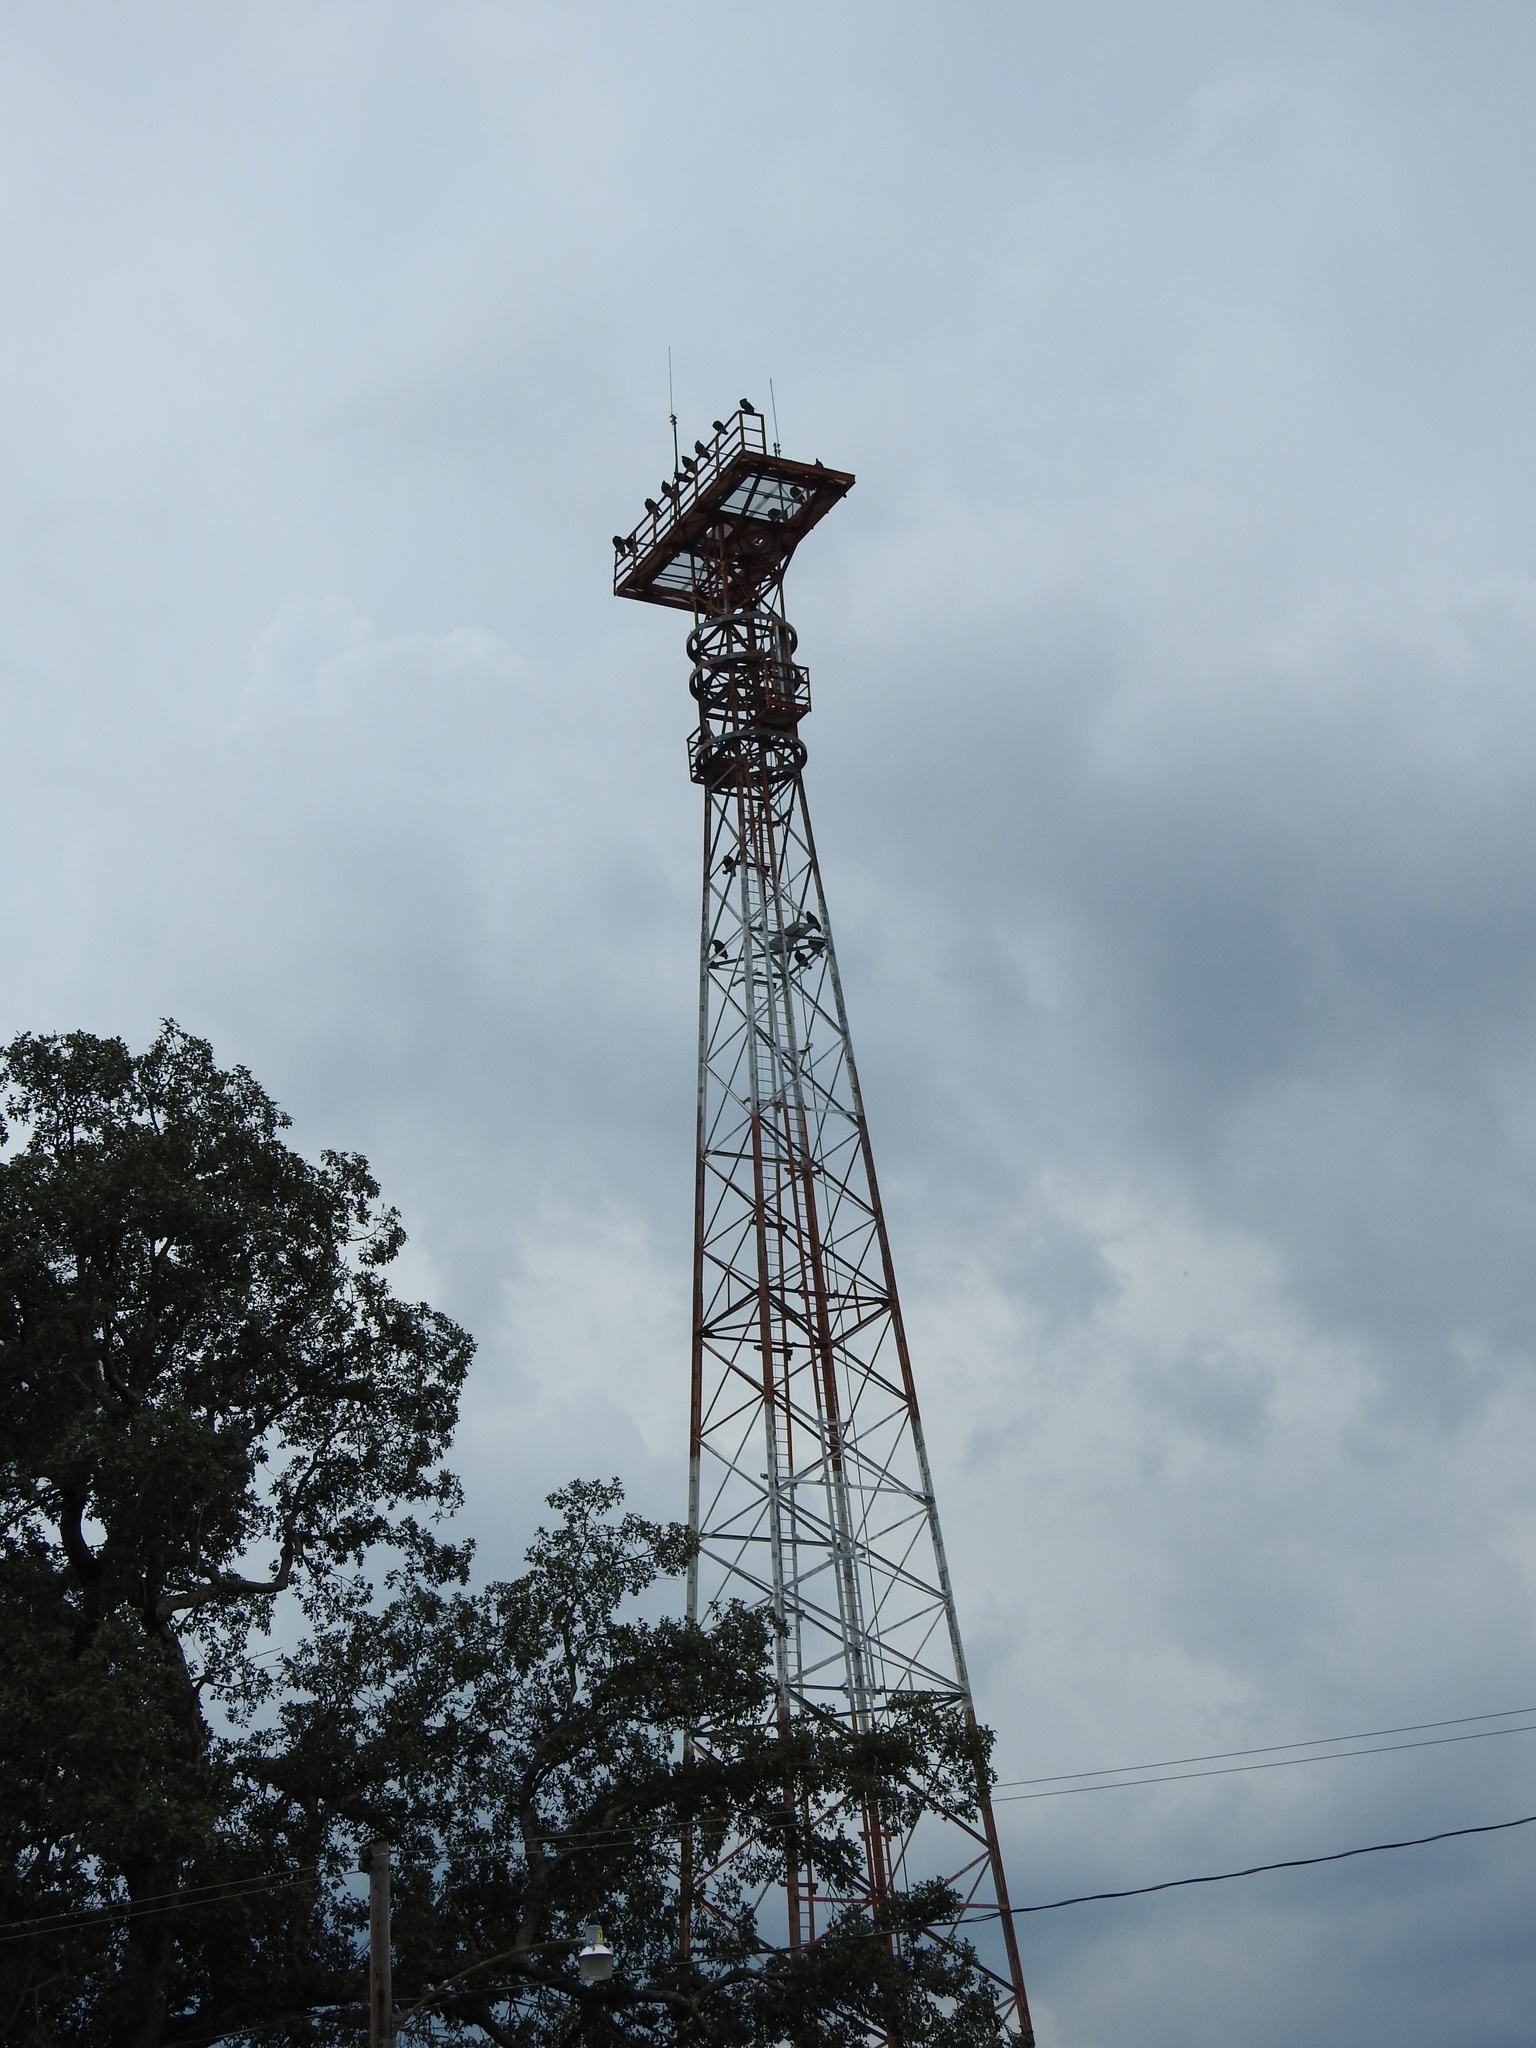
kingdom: Animalia
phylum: Chordata
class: Aves
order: Accipitriformes
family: Cathartidae
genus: Coragyps
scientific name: Coragyps atratus
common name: Black vulture
